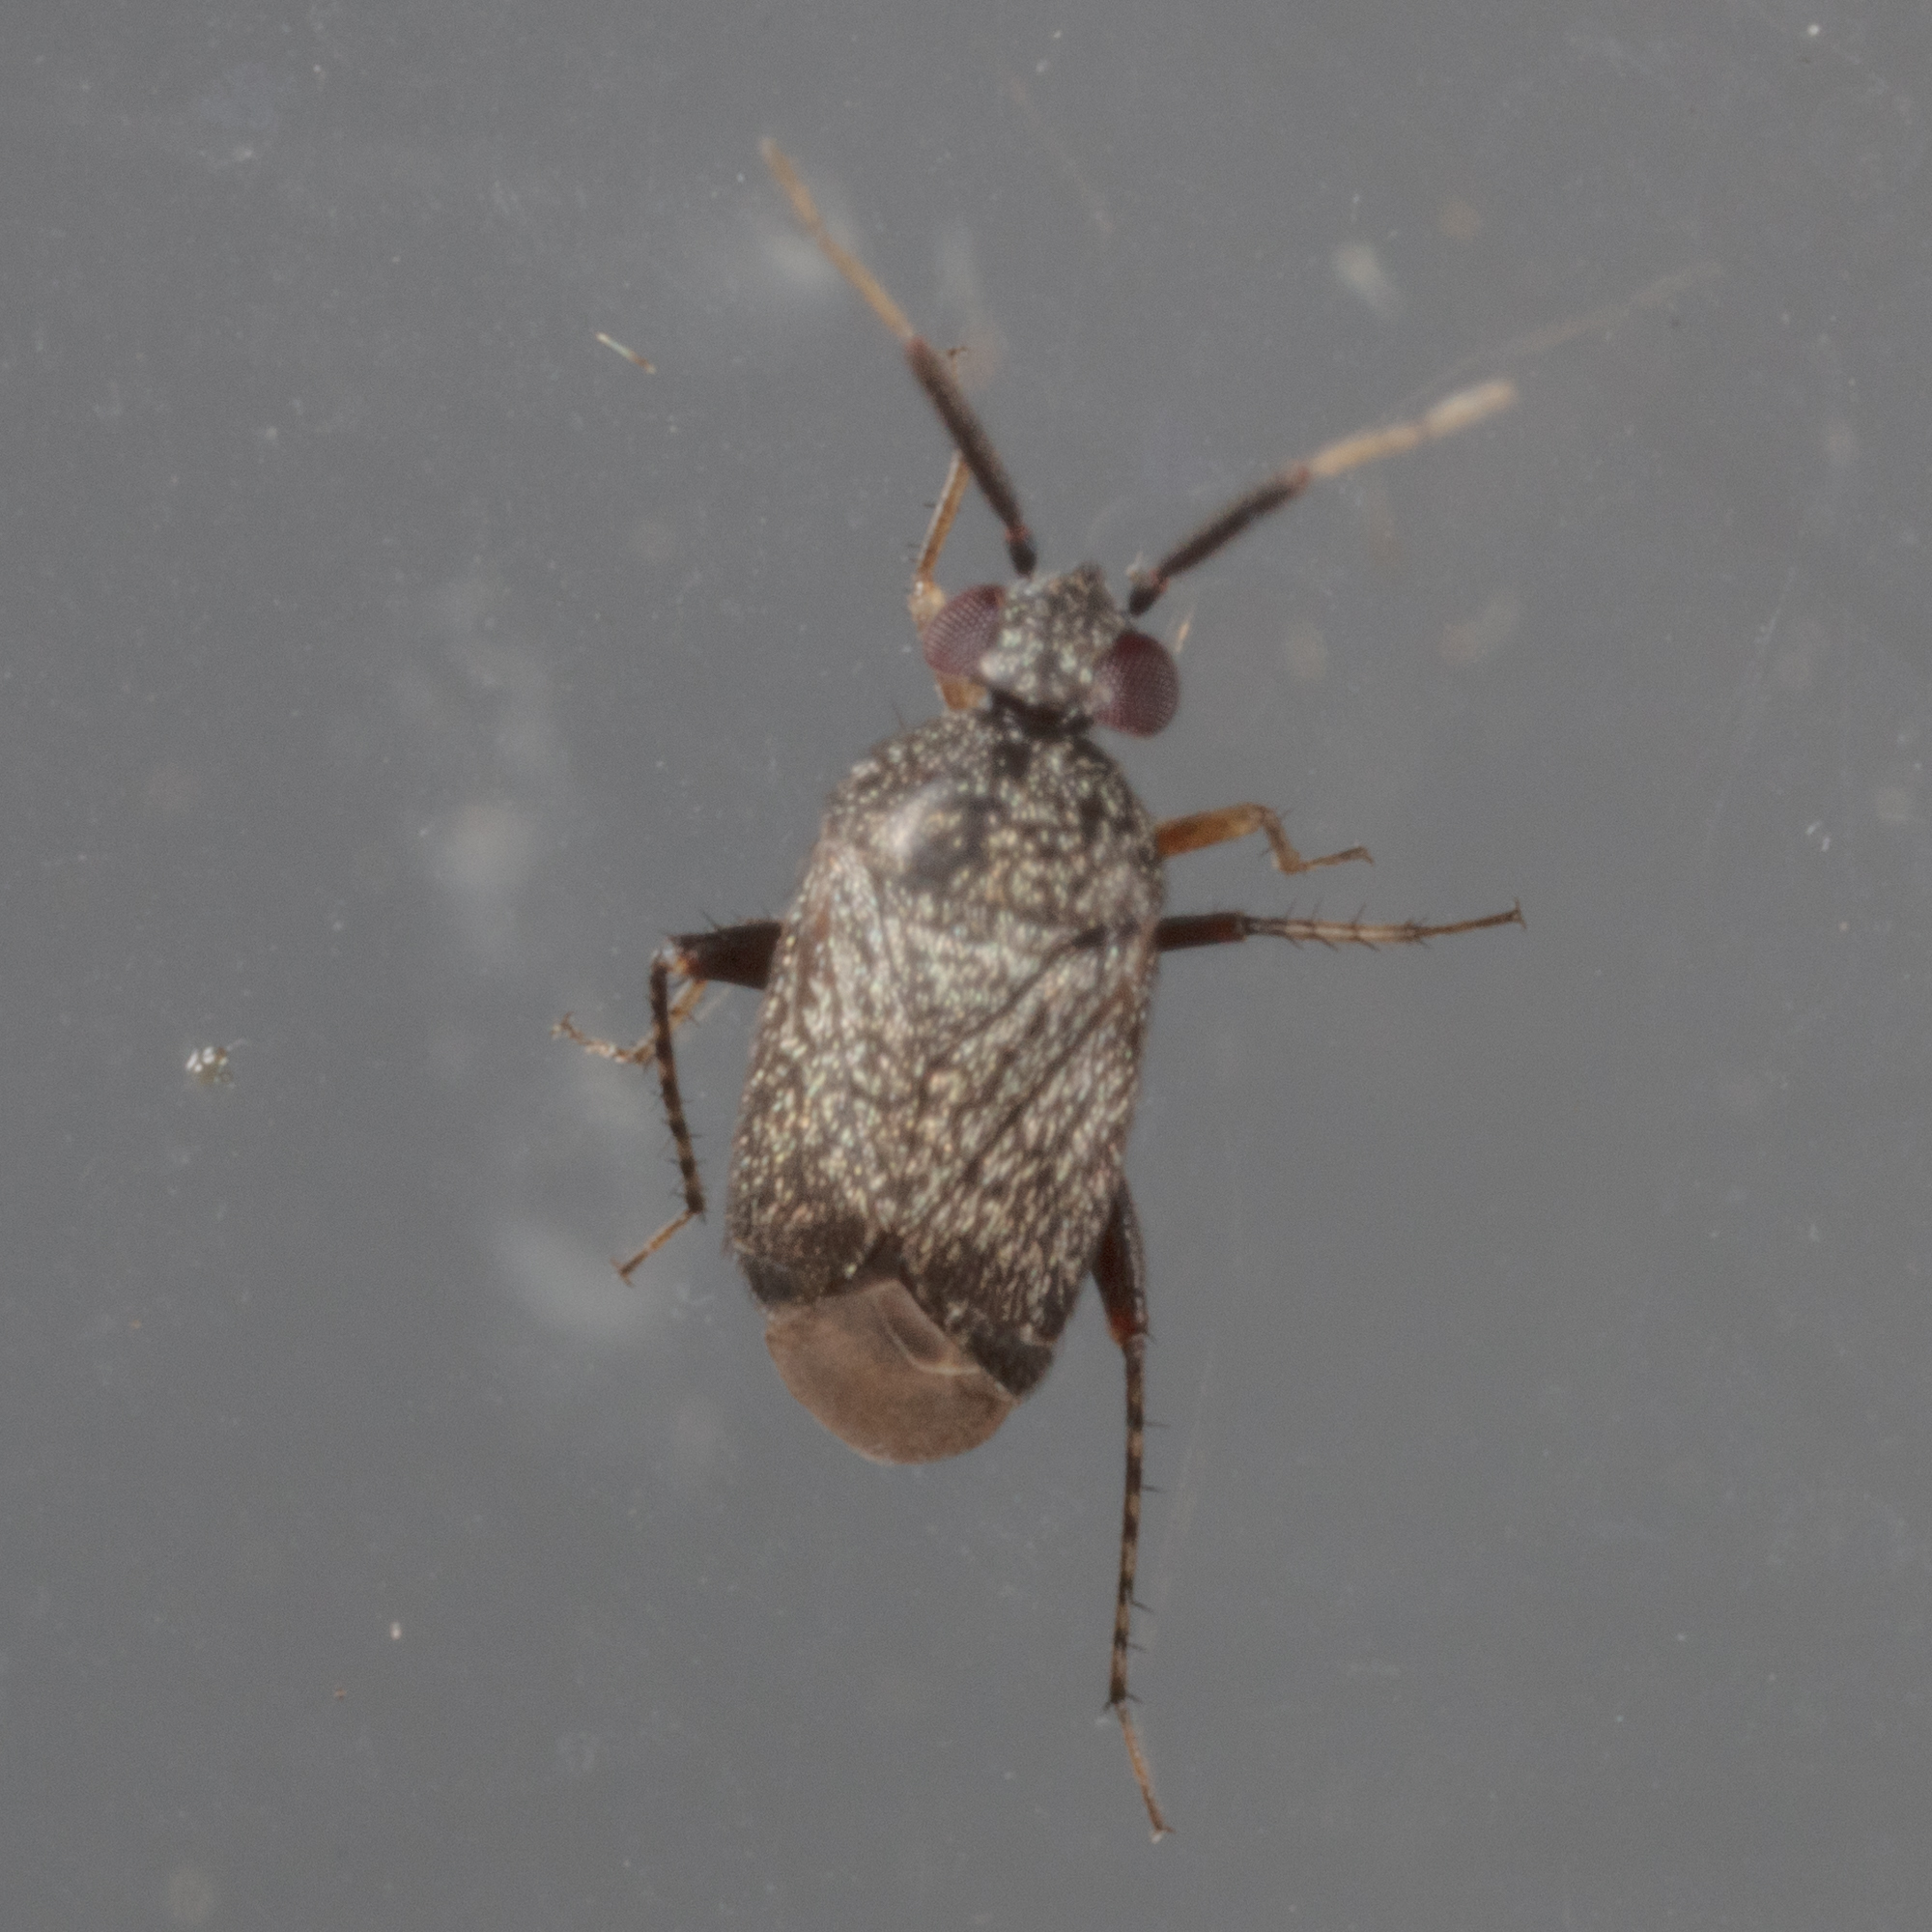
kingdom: Animalia
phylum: Arthropoda
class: Insecta
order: Hemiptera
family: Miridae
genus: Rhinacloa
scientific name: Rhinacloa forticornis
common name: Brown cotton mirid
